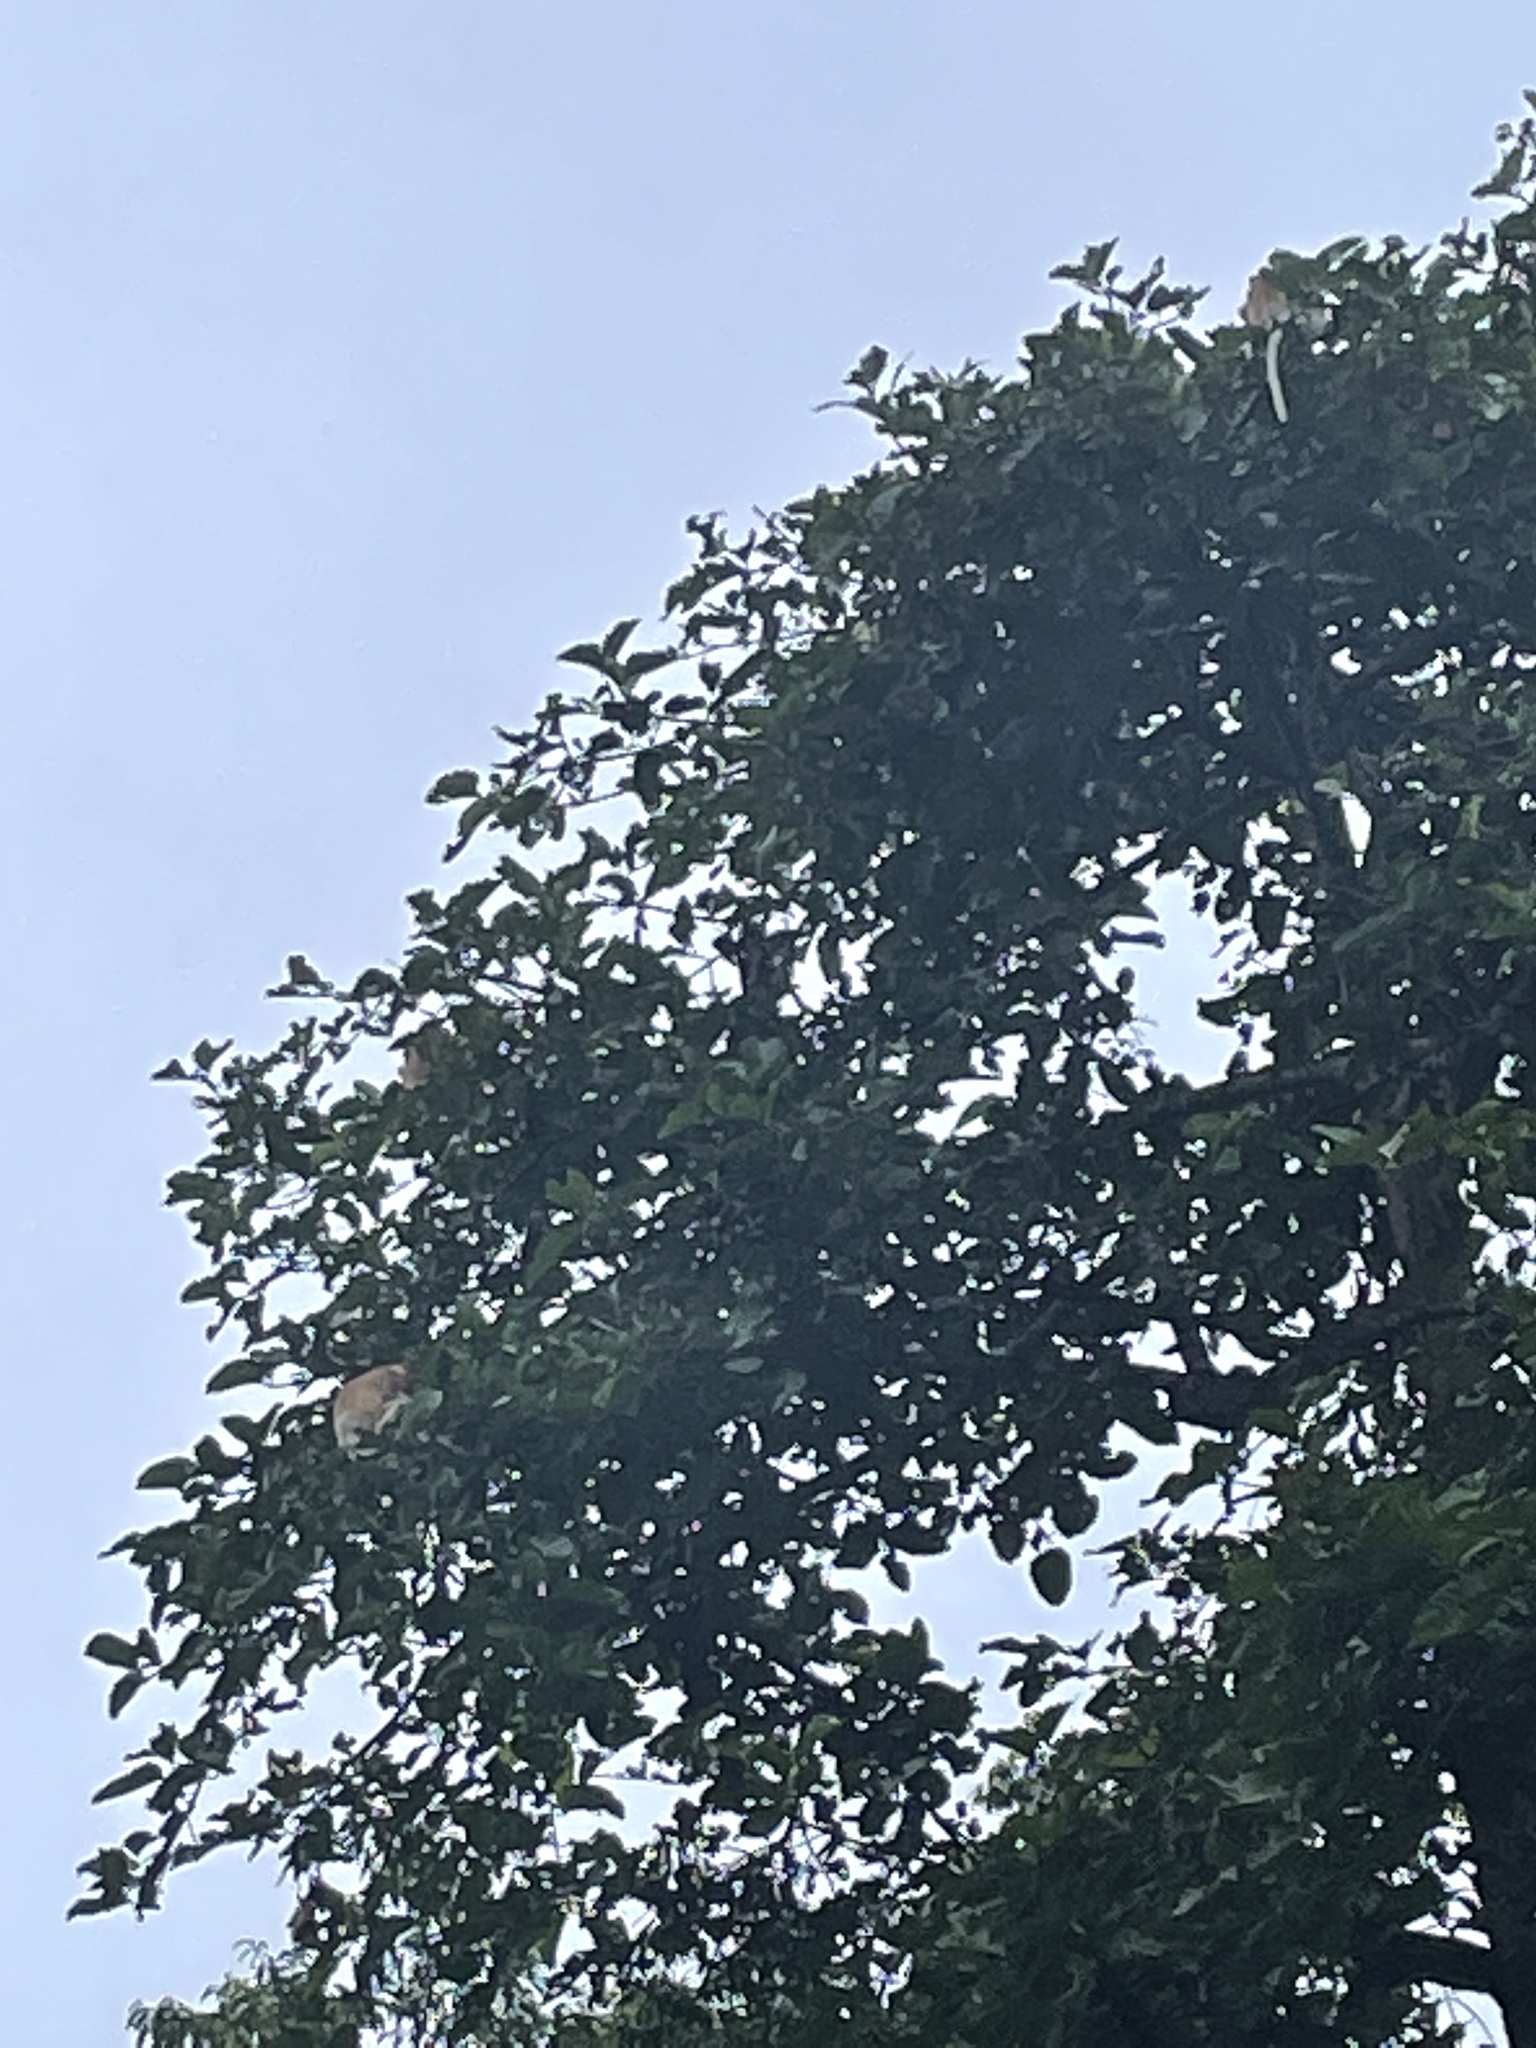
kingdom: Animalia
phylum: Chordata
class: Mammalia
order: Primates
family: Cercopithecidae
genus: Nasalis
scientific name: Nasalis larvatus
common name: Proboscis monkey
